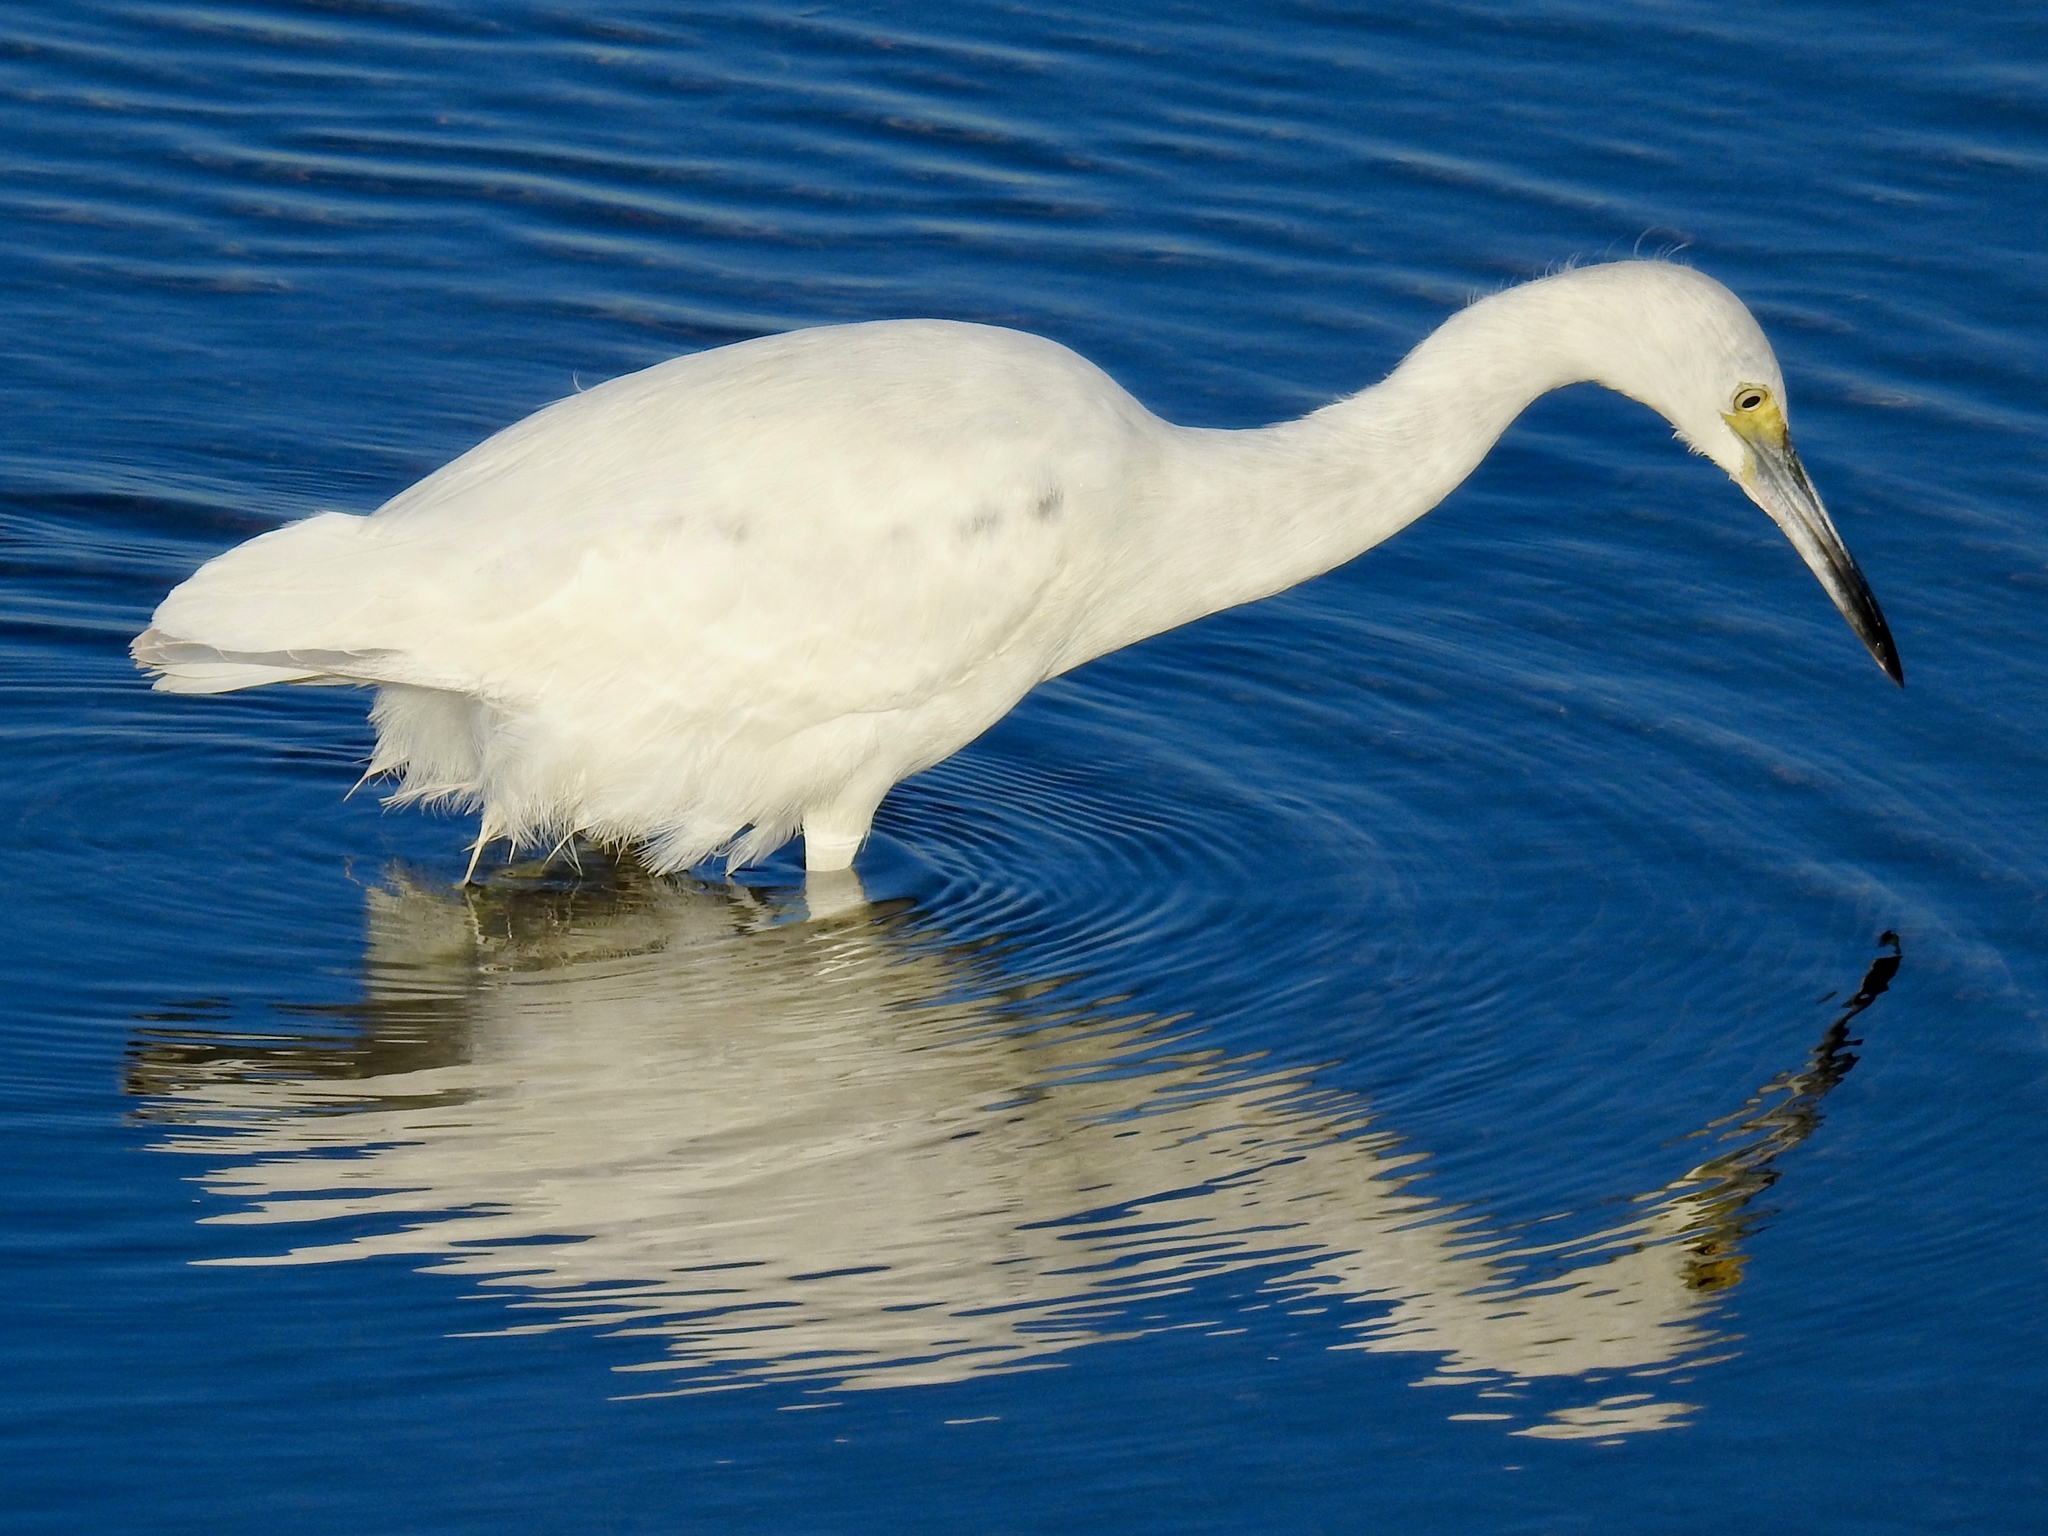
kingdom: Animalia
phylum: Chordata
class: Aves
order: Pelecaniformes
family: Ardeidae
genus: Egretta
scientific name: Egretta caerulea
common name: Little blue heron
